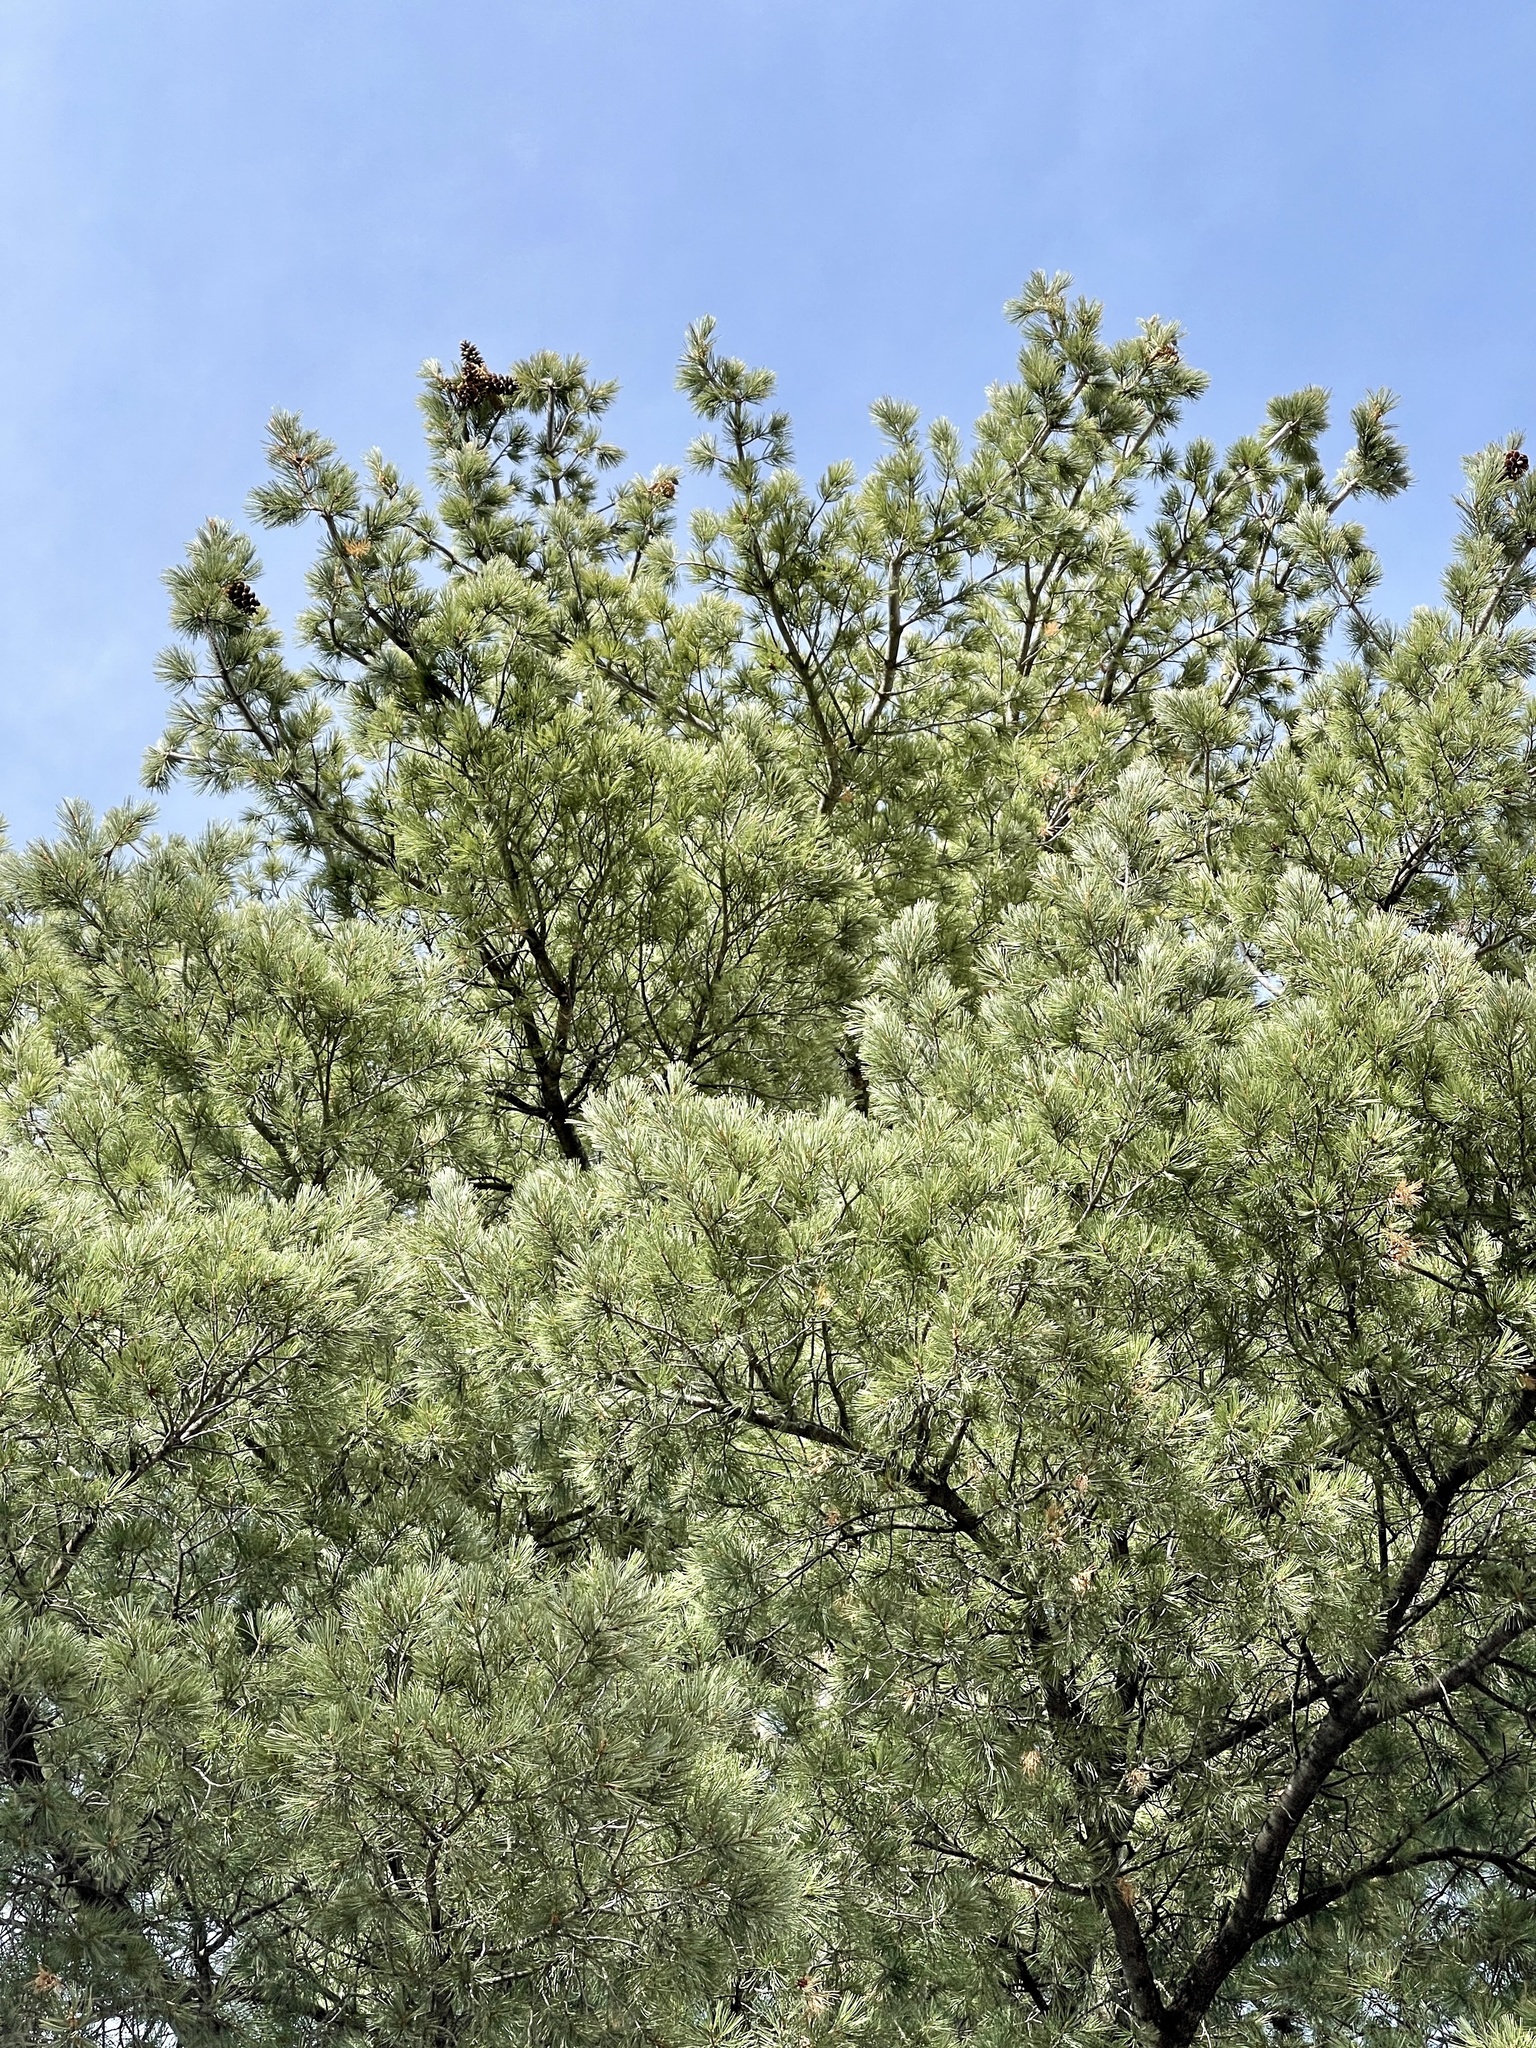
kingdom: Plantae
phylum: Tracheophyta
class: Pinopsida
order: Pinales
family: Pinaceae
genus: Pinus
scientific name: Pinus strobiformis
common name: Southwestern white pine
